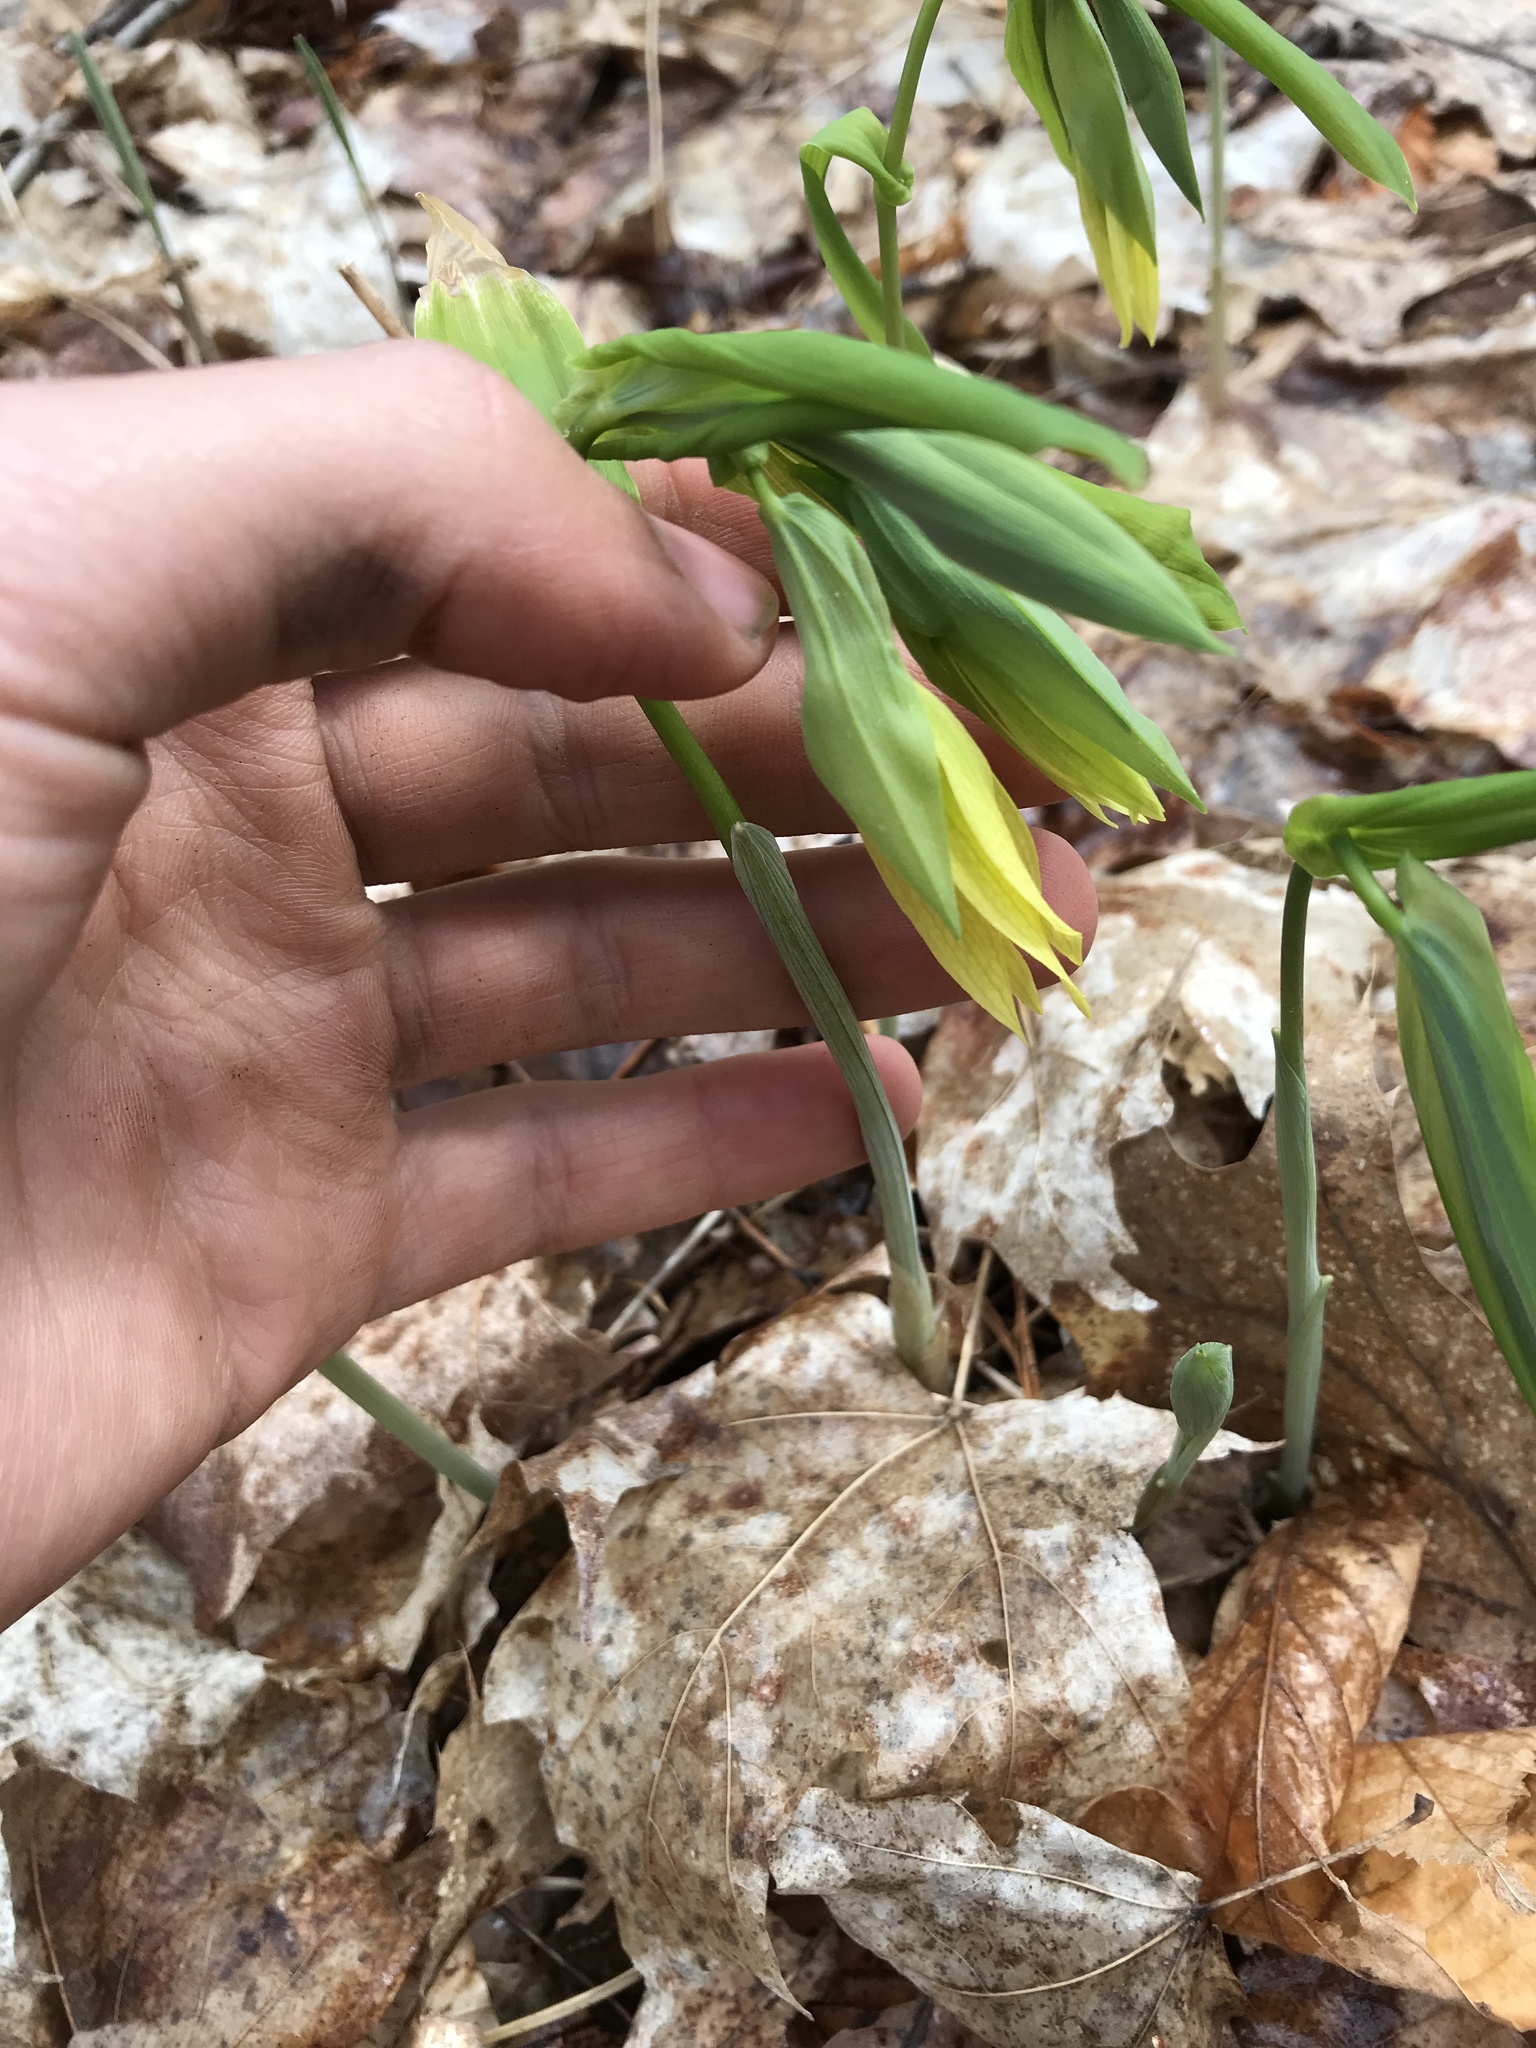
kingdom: Plantae
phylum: Tracheophyta
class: Liliopsida
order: Liliales
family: Colchicaceae
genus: Uvularia
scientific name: Uvularia grandiflora
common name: Bellwort
